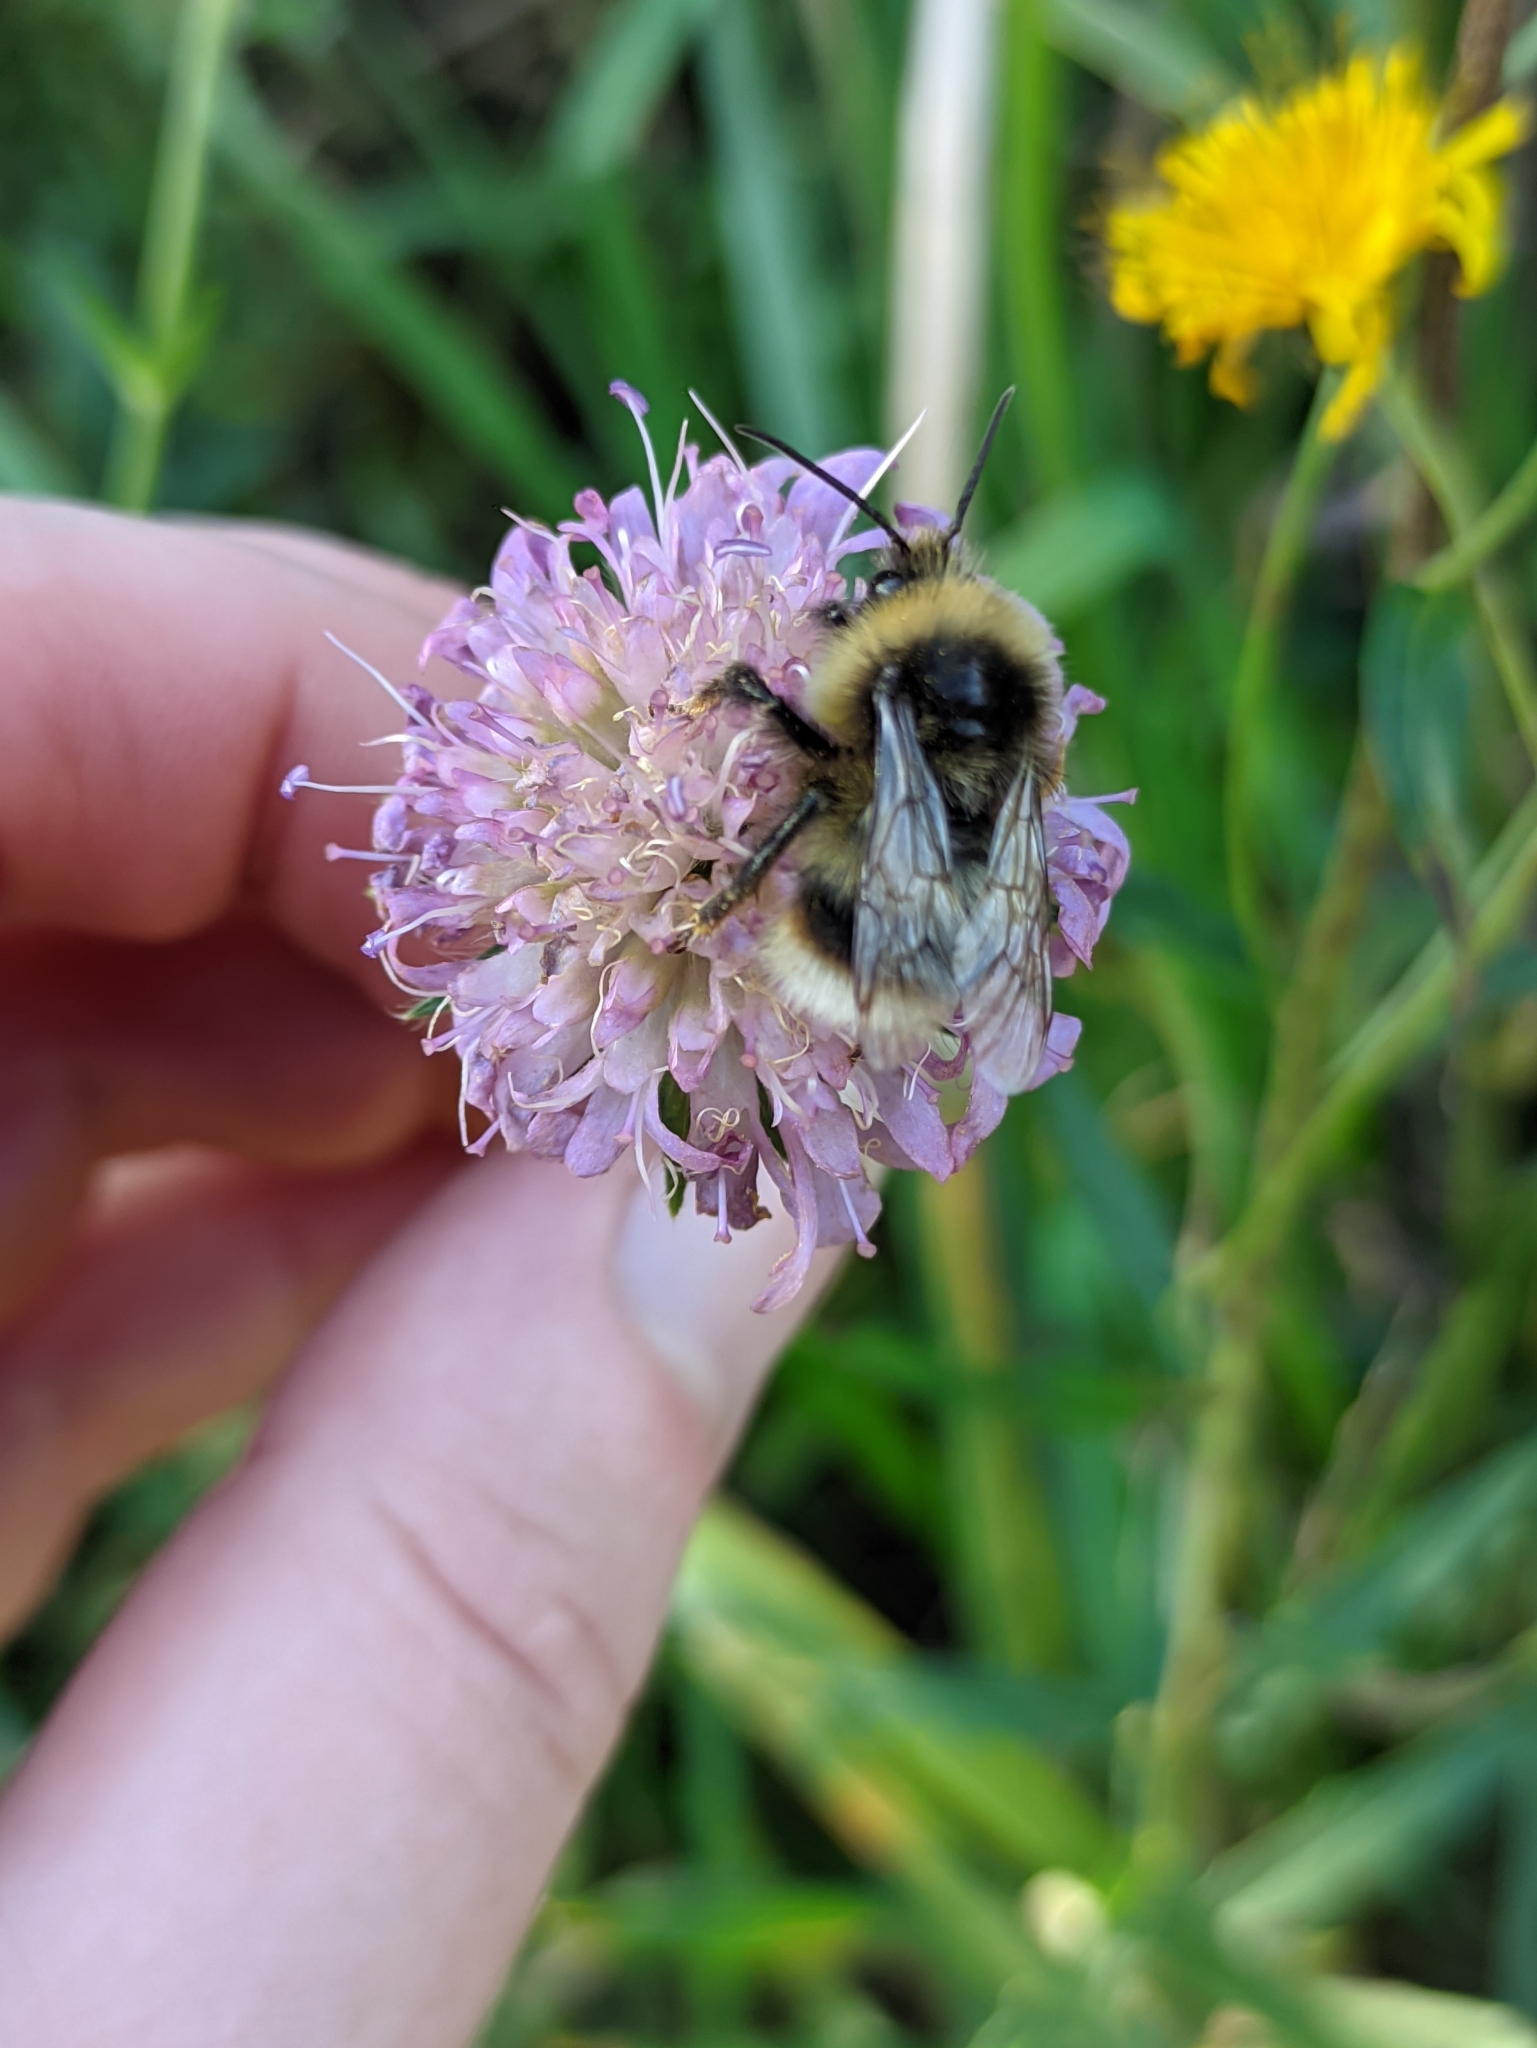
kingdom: Animalia
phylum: Arthropoda
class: Insecta
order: Hymenoptera
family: Apidae
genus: Bombus
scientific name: Bombus soroeensis
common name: Broken-belted humble-bee
